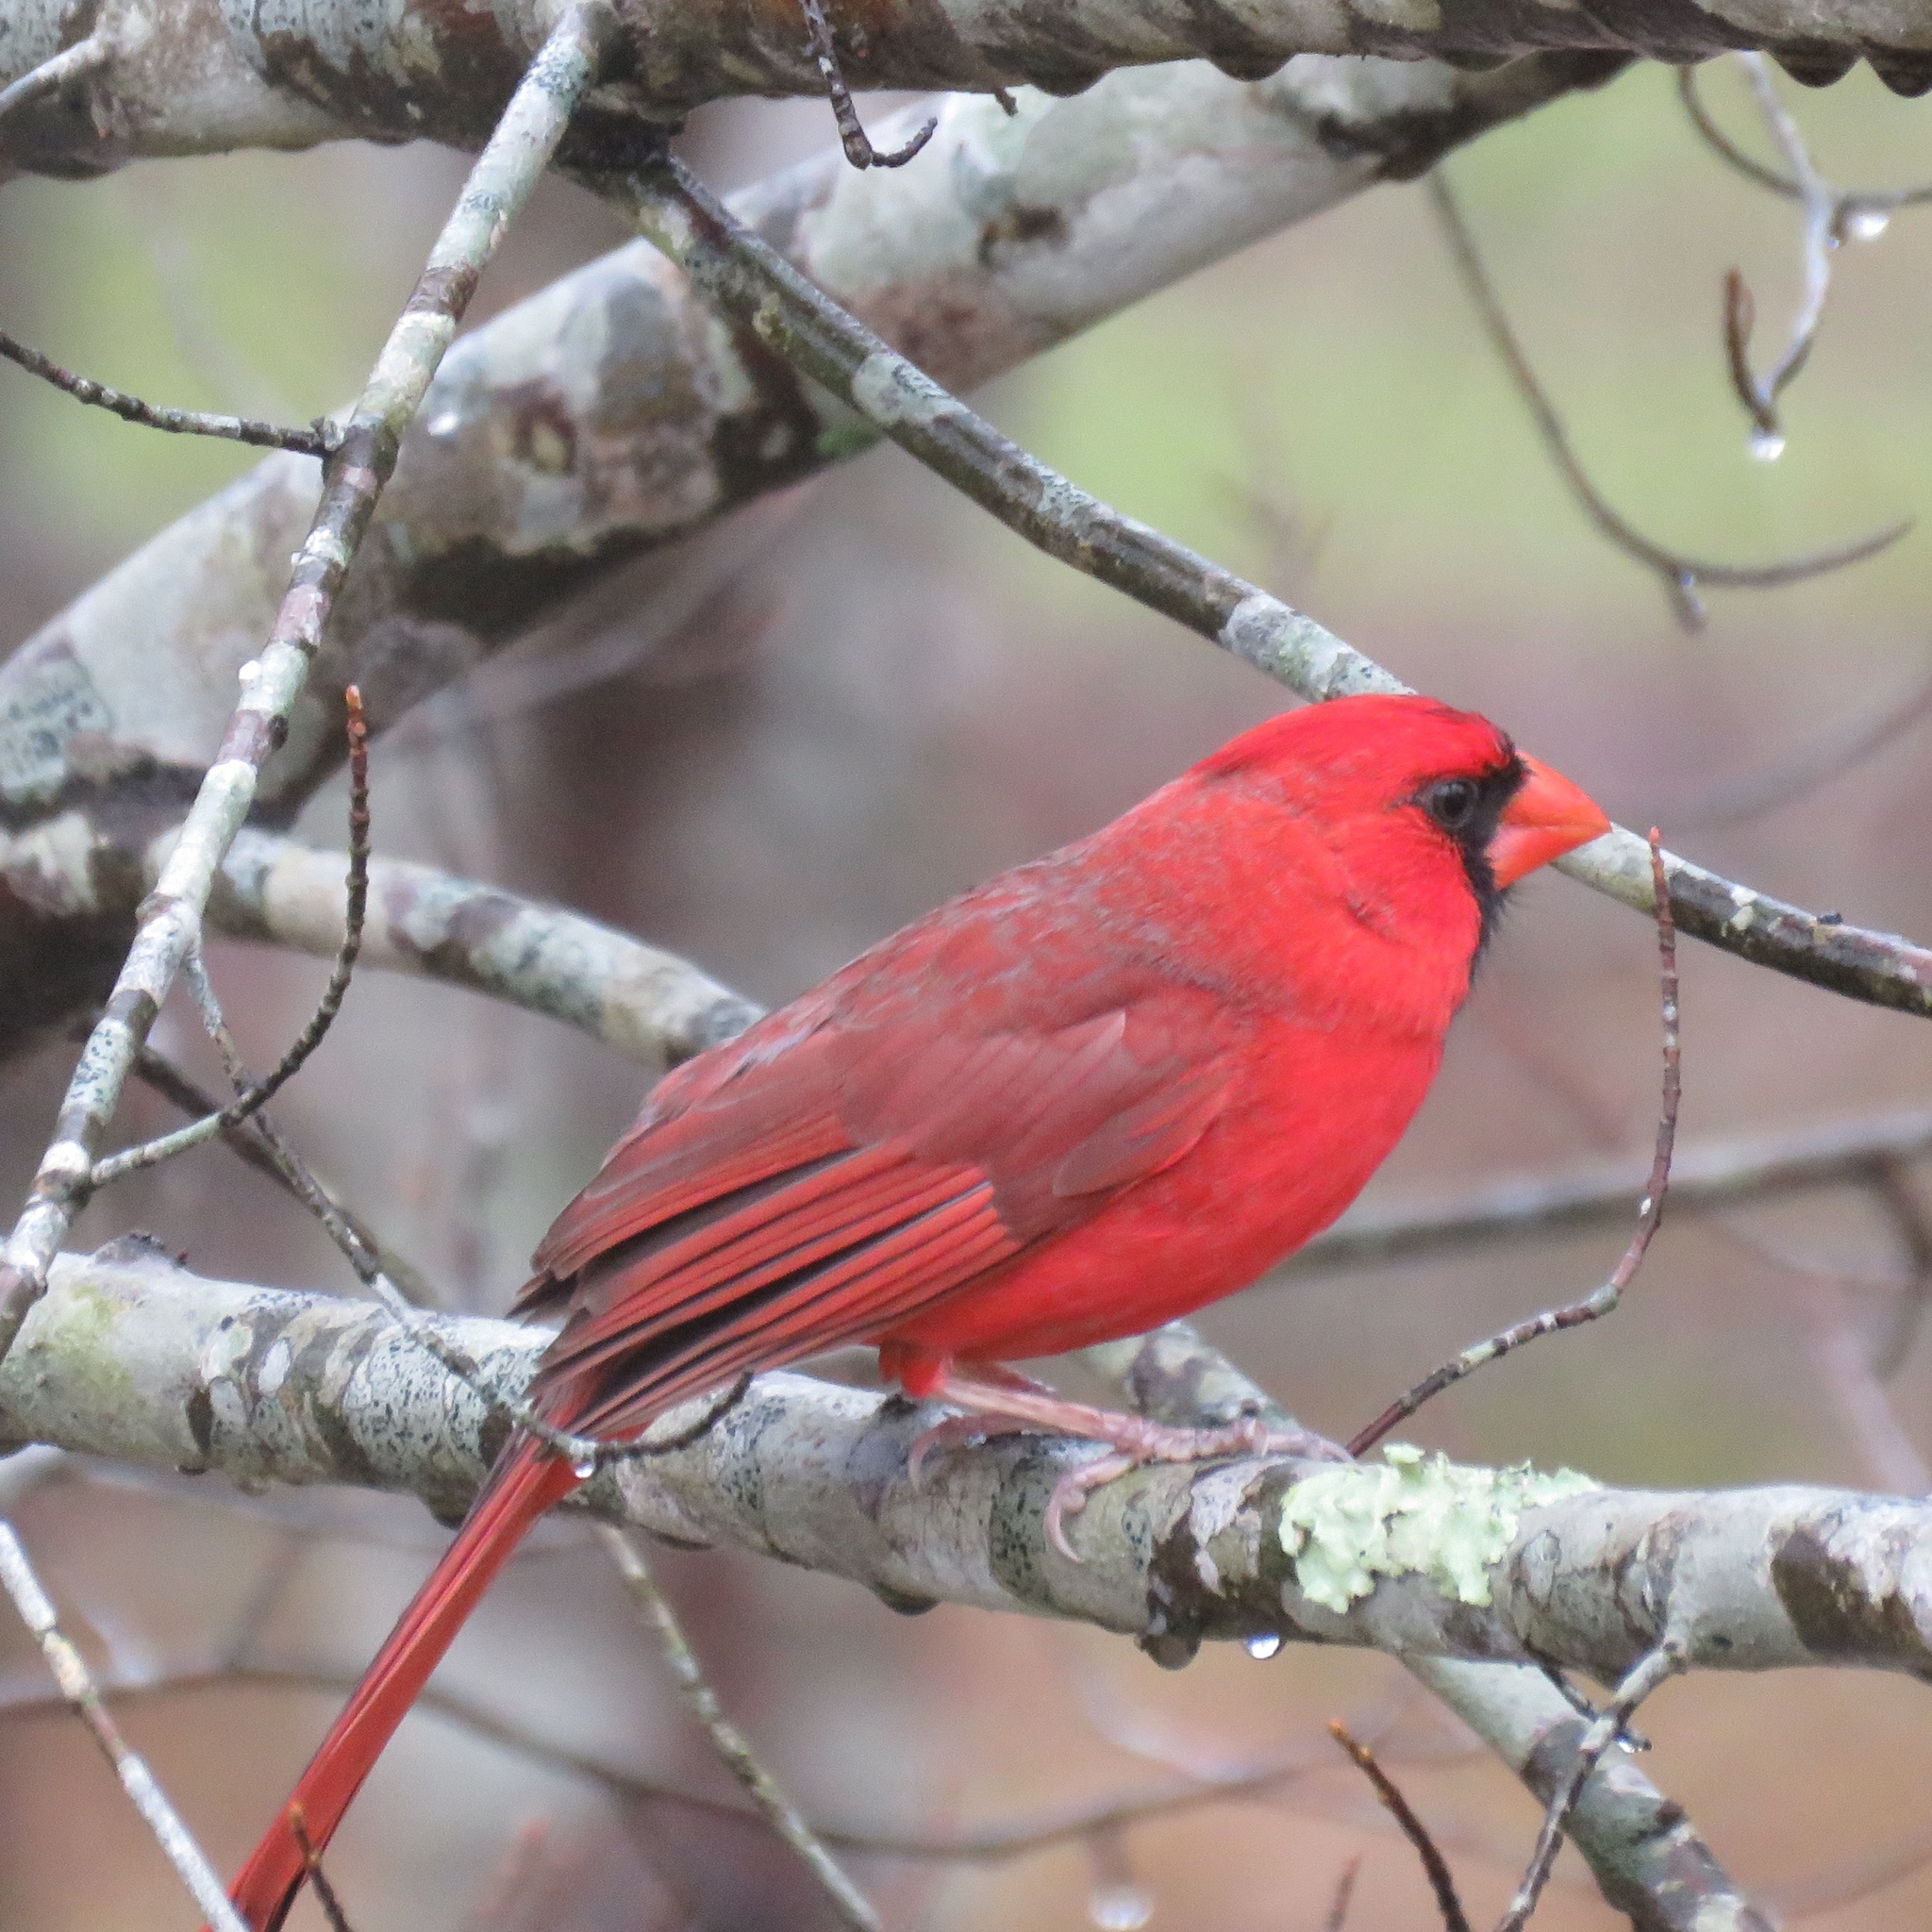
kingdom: Animalia
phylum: Chordata
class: Aves
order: Passeriformes
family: Cardinalidae
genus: Cardinalis
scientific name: Cardinalis cardinalis
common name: Northern cardinal
